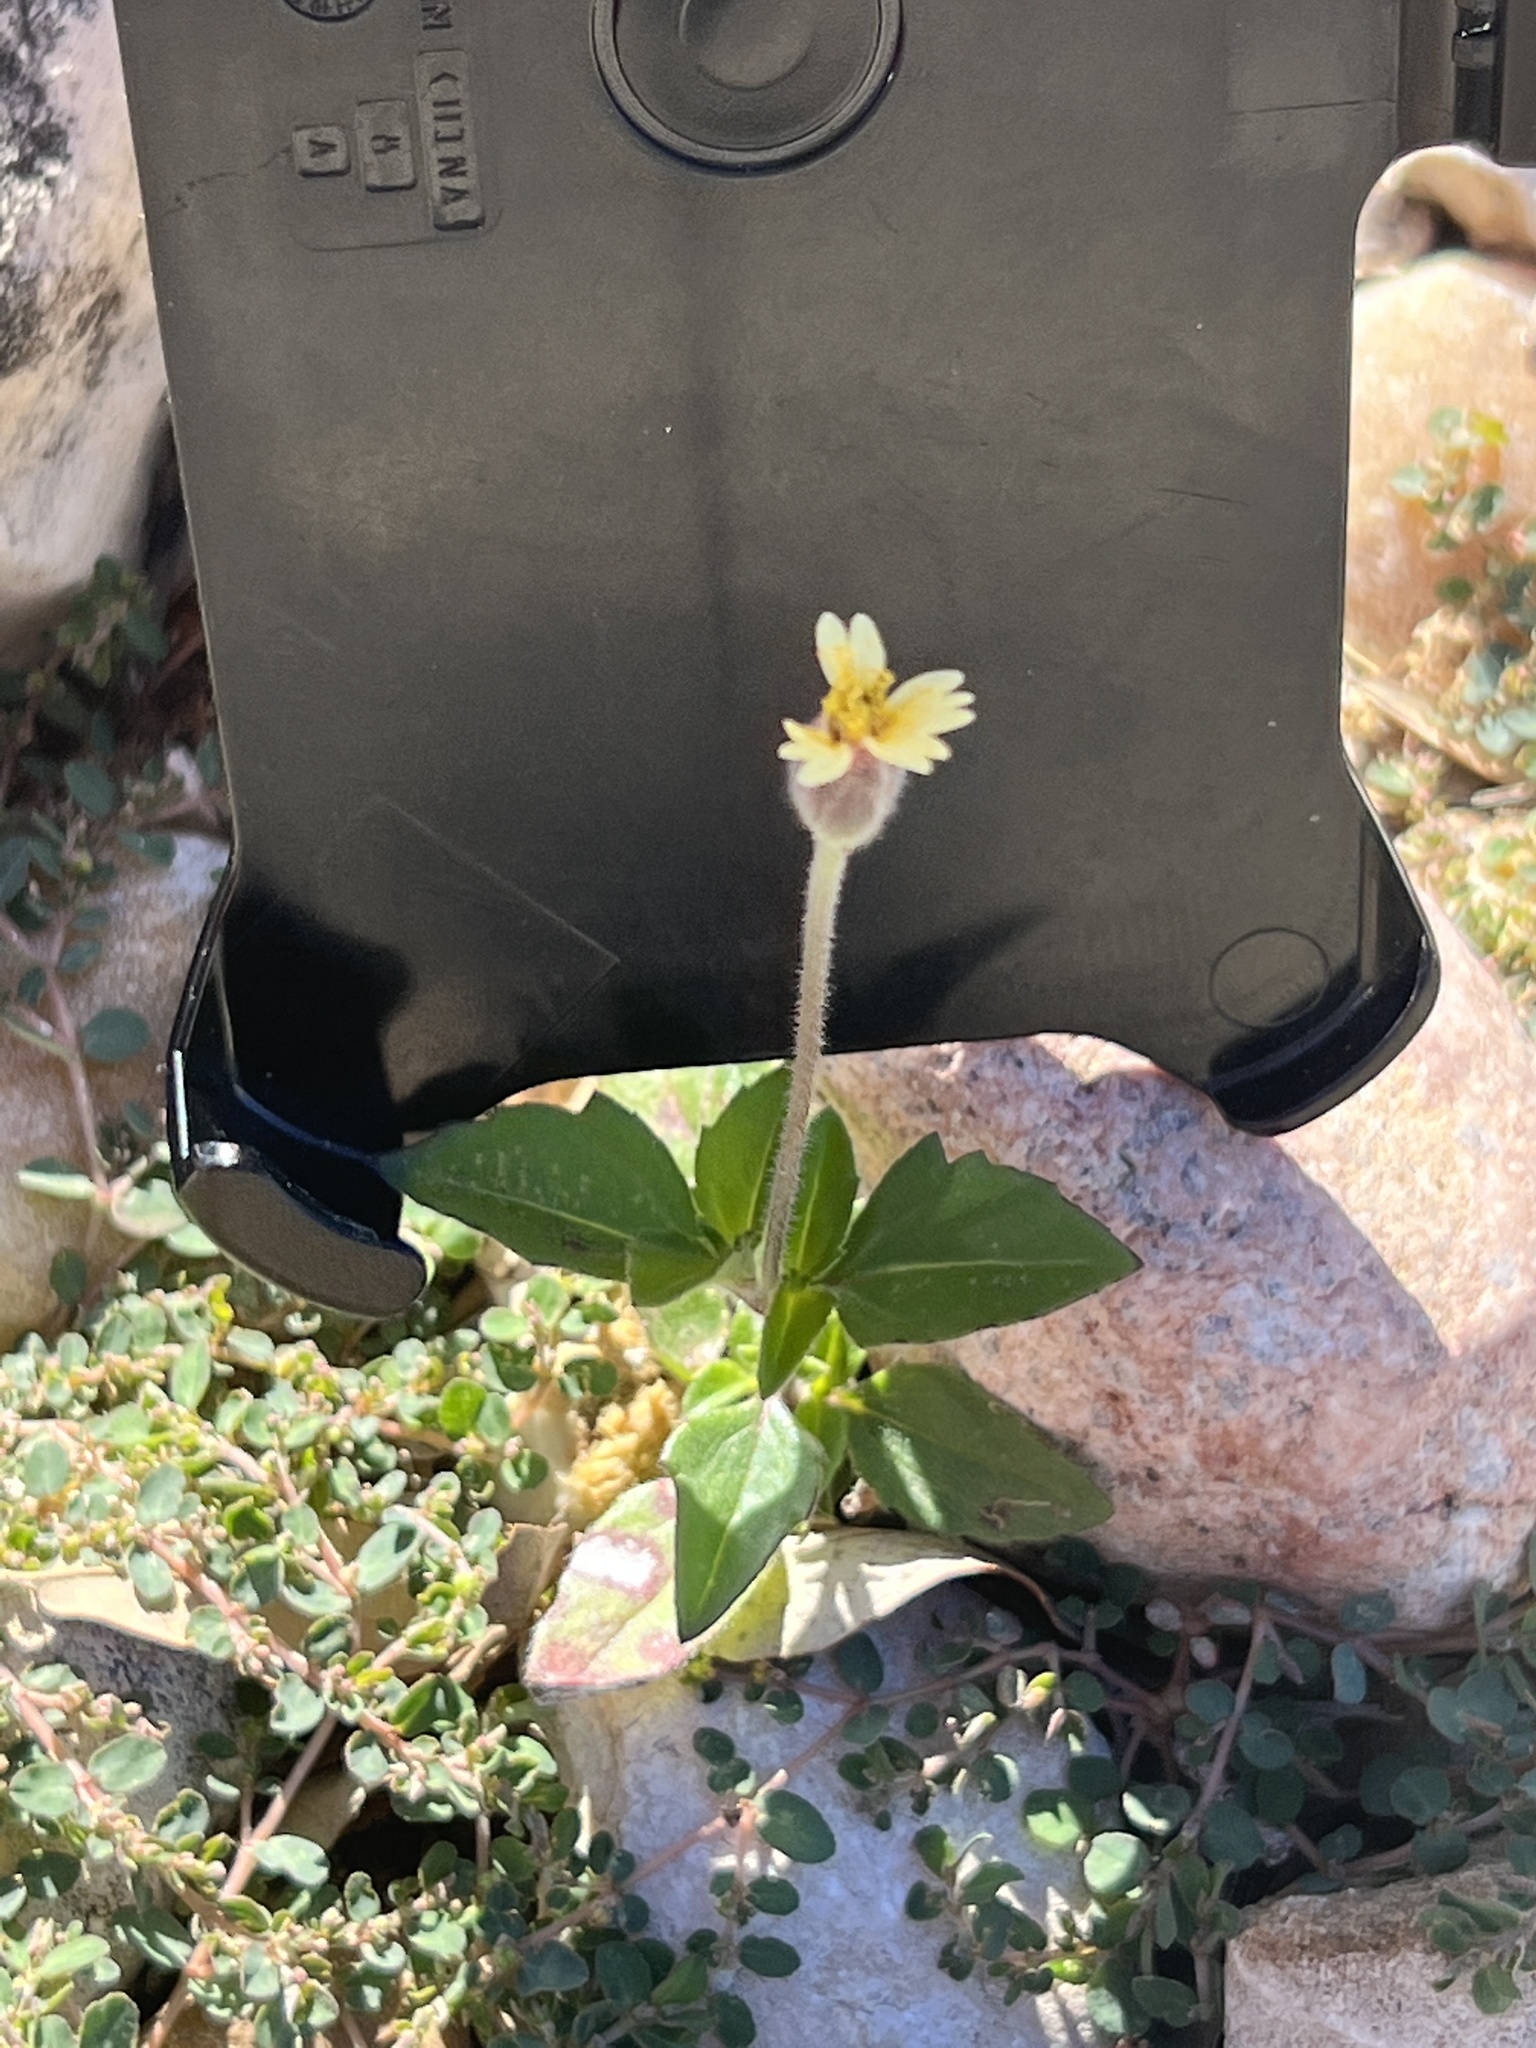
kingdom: Plantae
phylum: Tracheophyta
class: Magnoliopsida
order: Asterales
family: Asteraceae
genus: Tridax
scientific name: Tridax procumbens
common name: Coatbuttons
